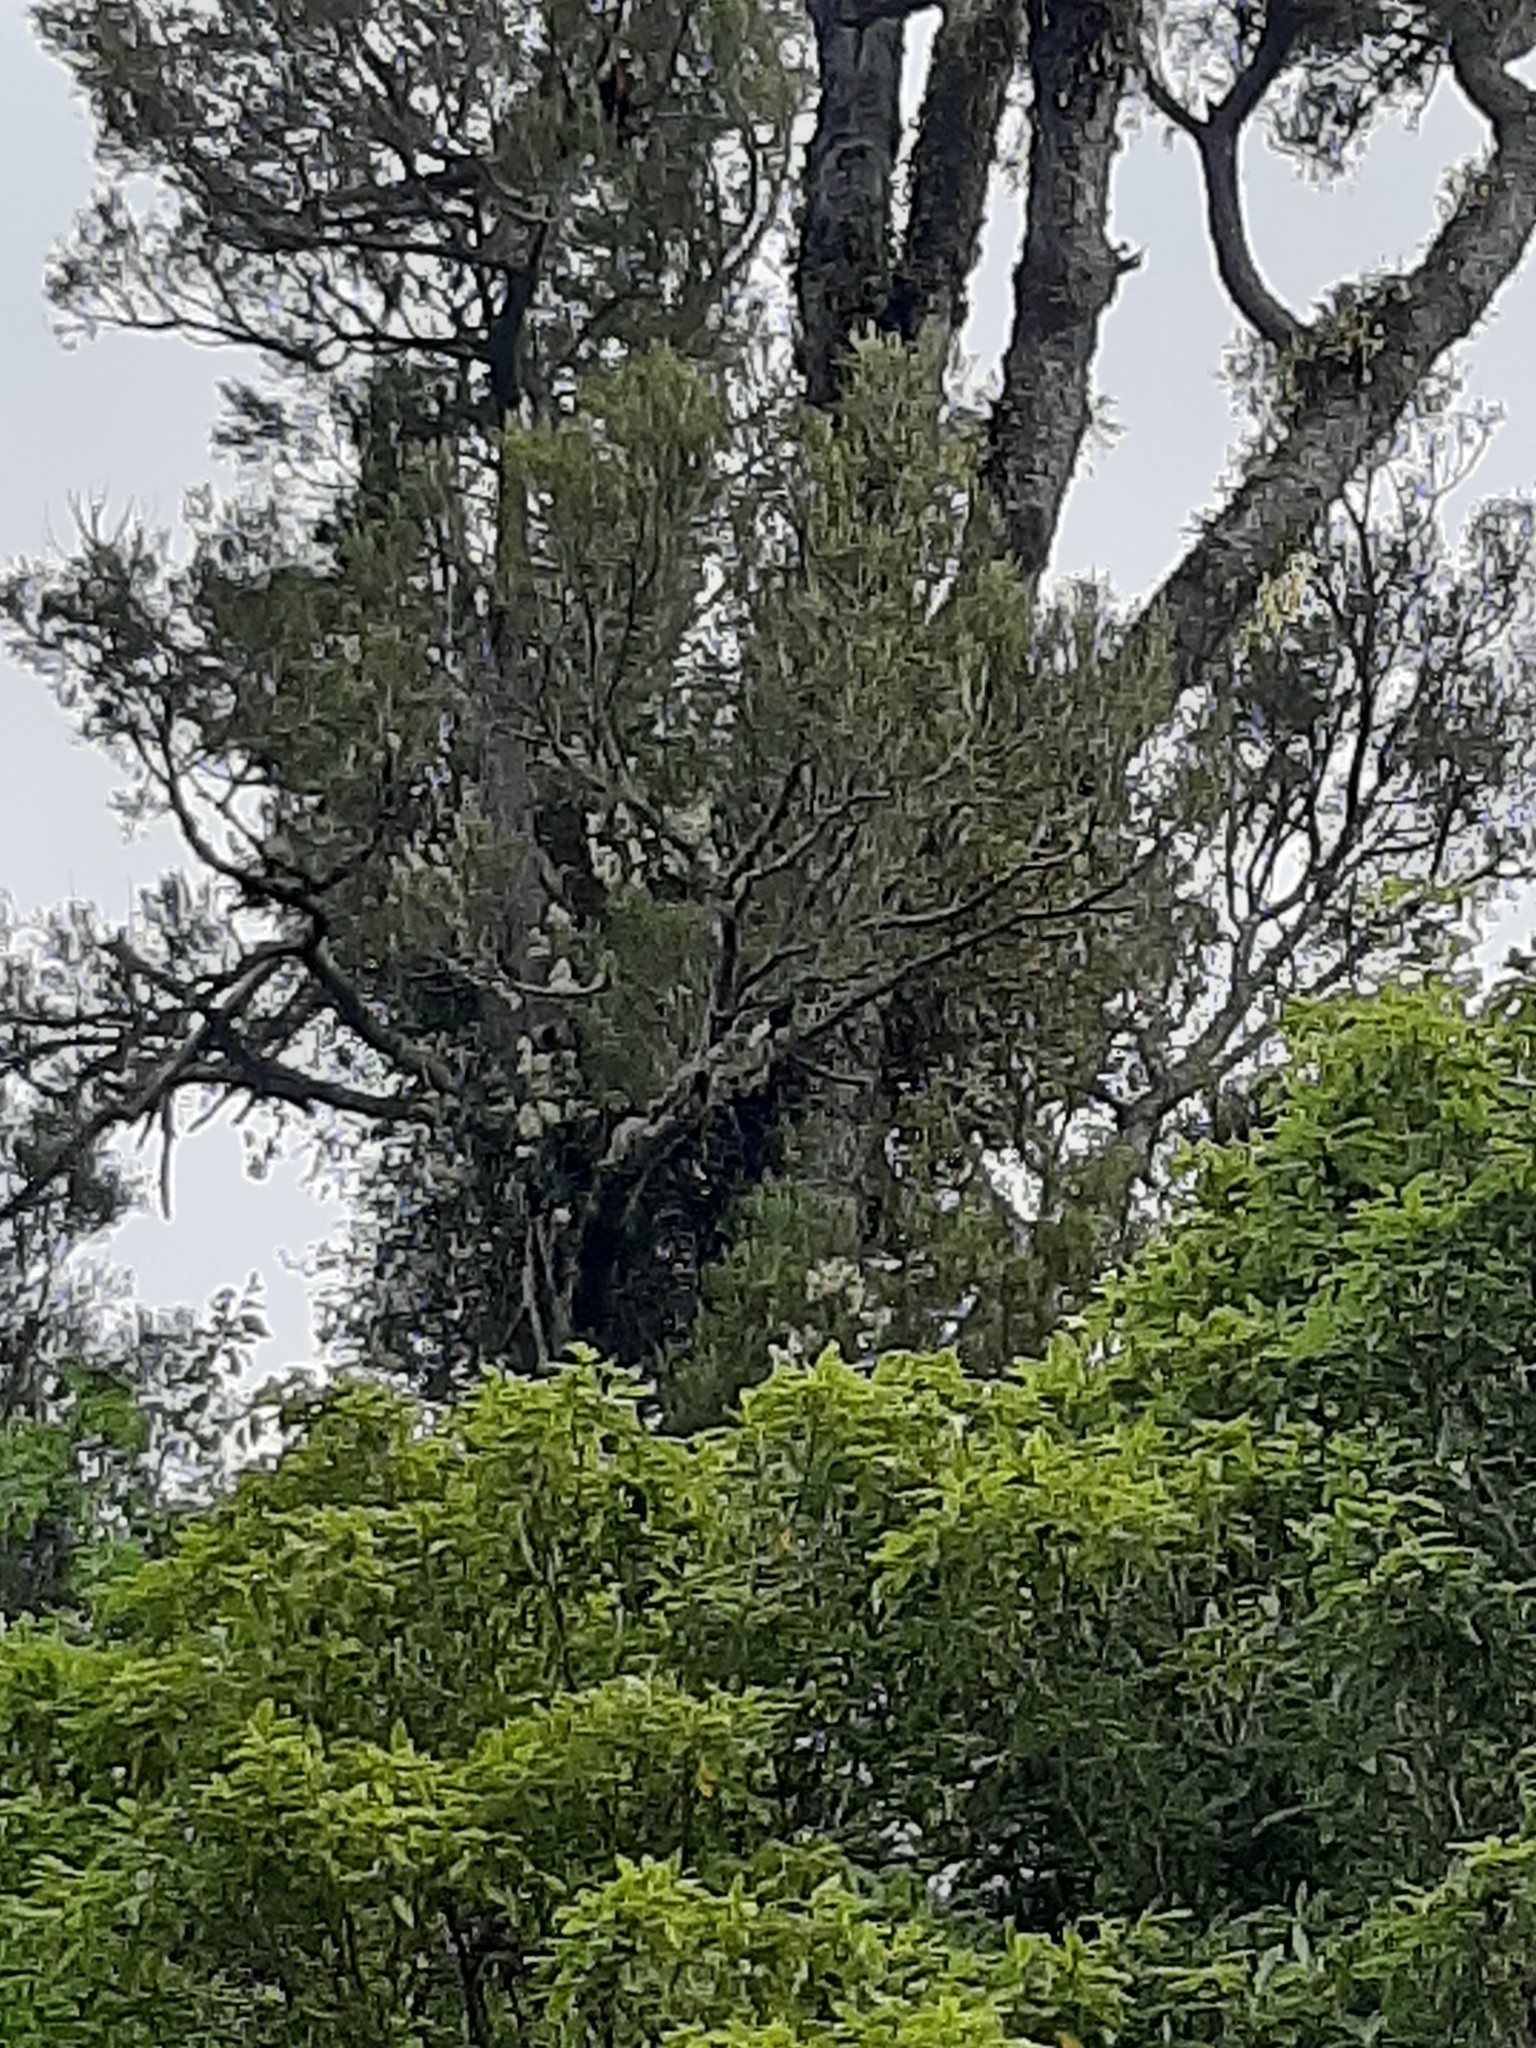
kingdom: Plantae
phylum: Tracheophyta
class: Liliopsida
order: Asparagales
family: Orchidaceae
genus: Earina
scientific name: Earina mucronata
